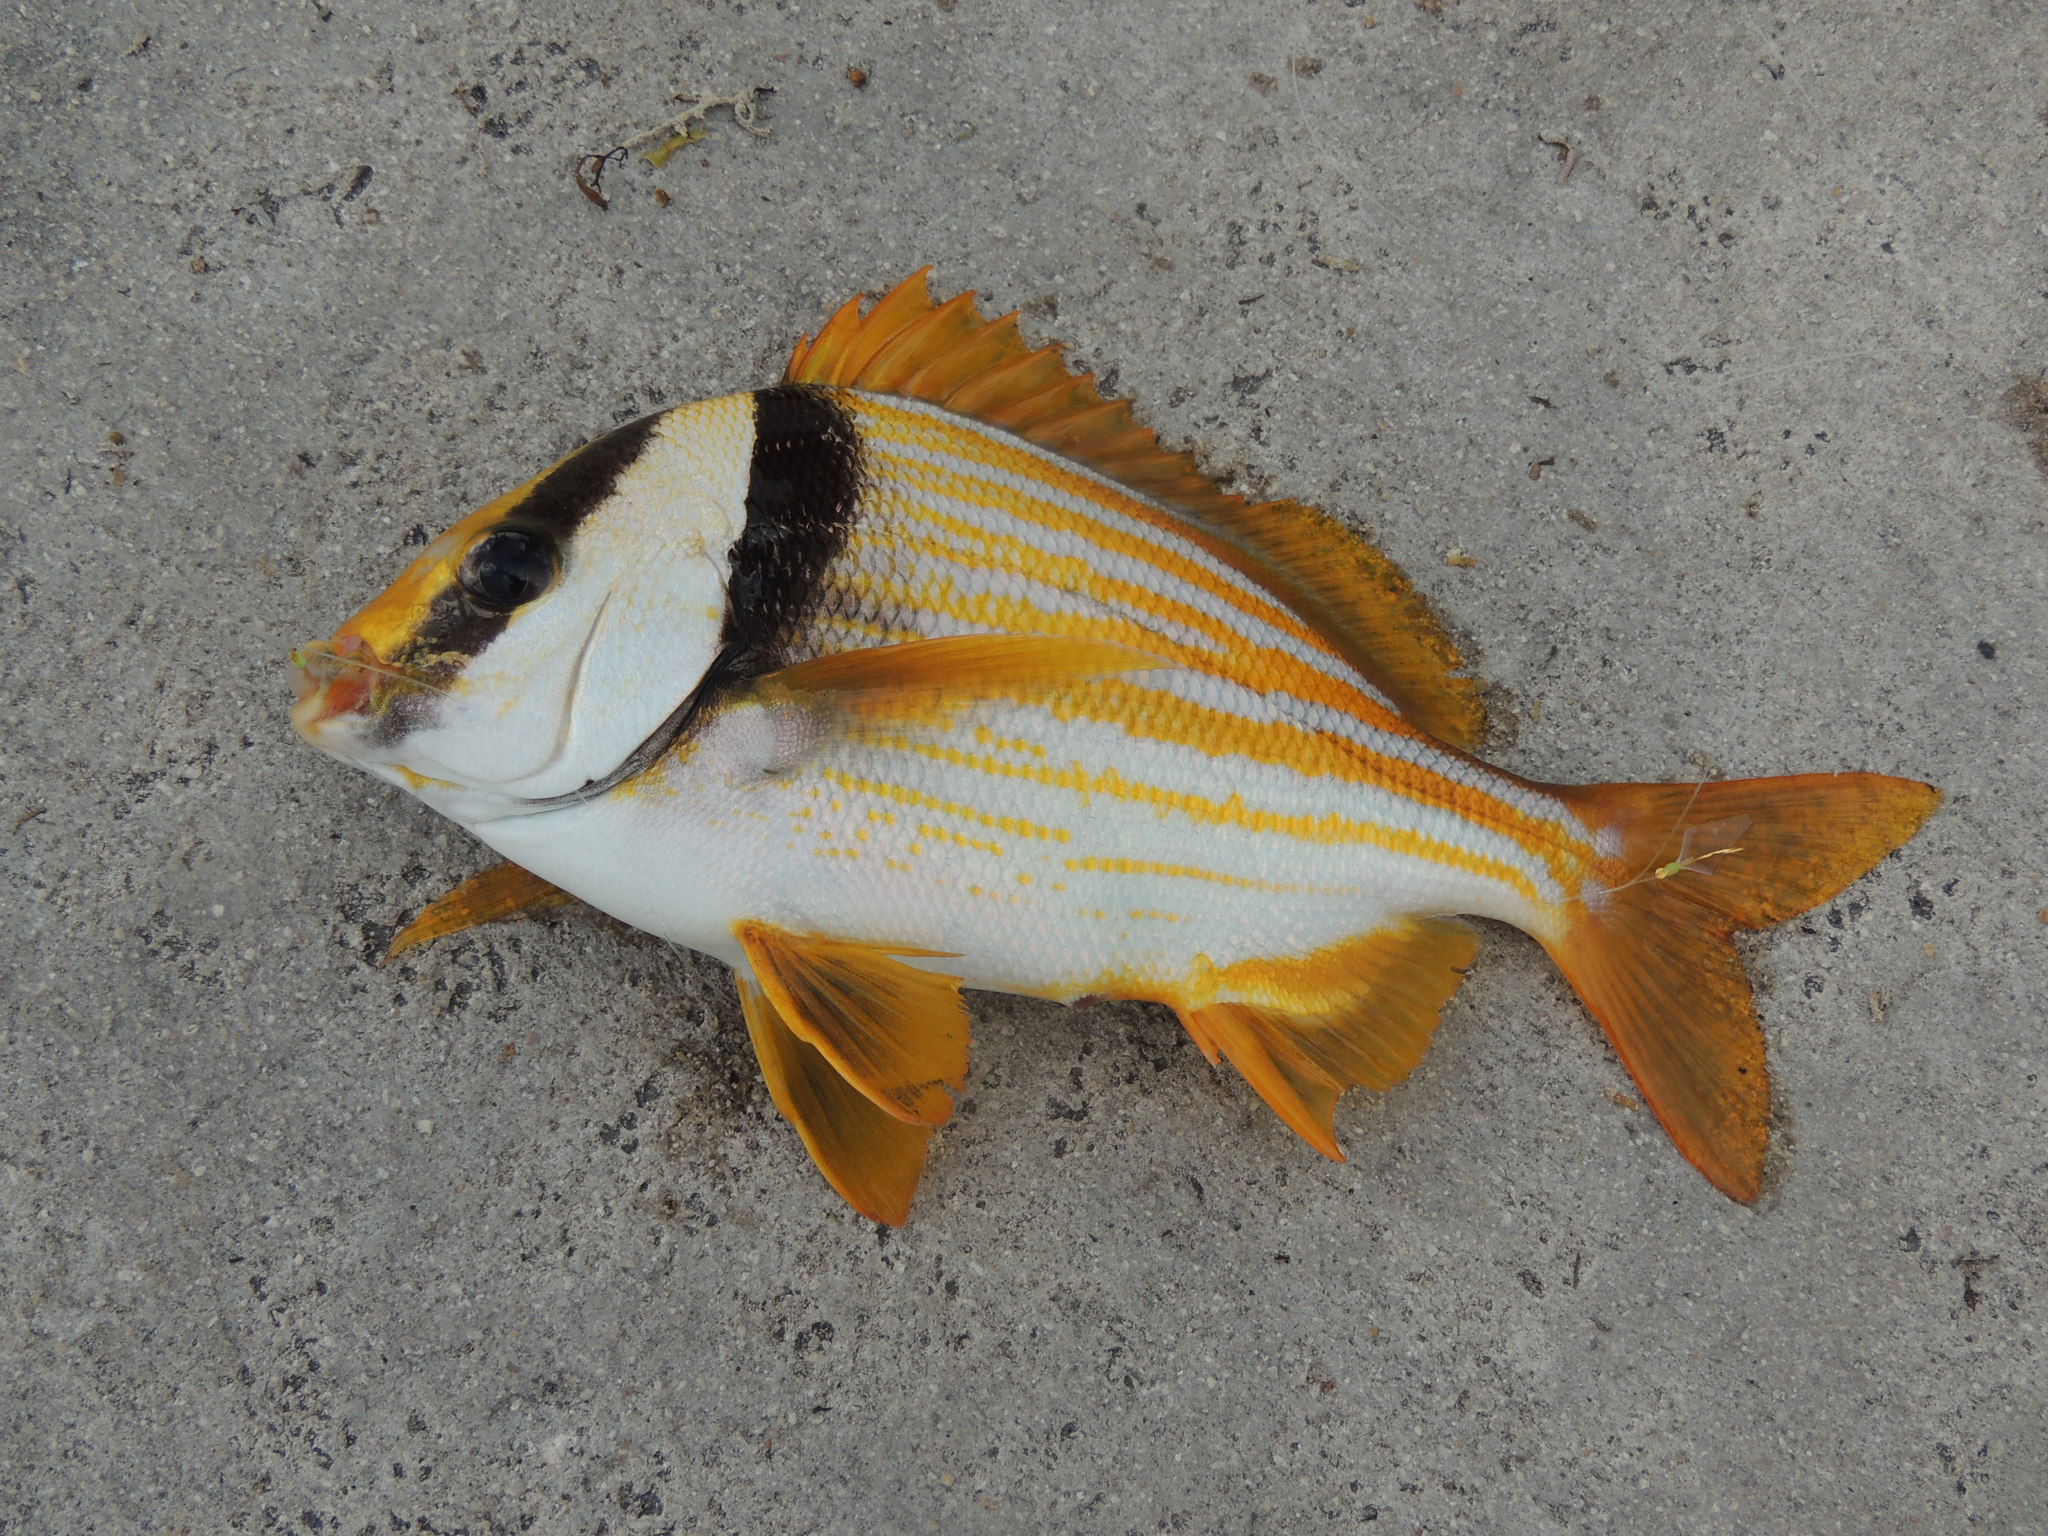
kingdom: Animalia
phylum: Chordata
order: Perciformes
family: Haemulidae
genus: Anisotremus
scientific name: Anisotremus virginicus
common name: Porkfish
